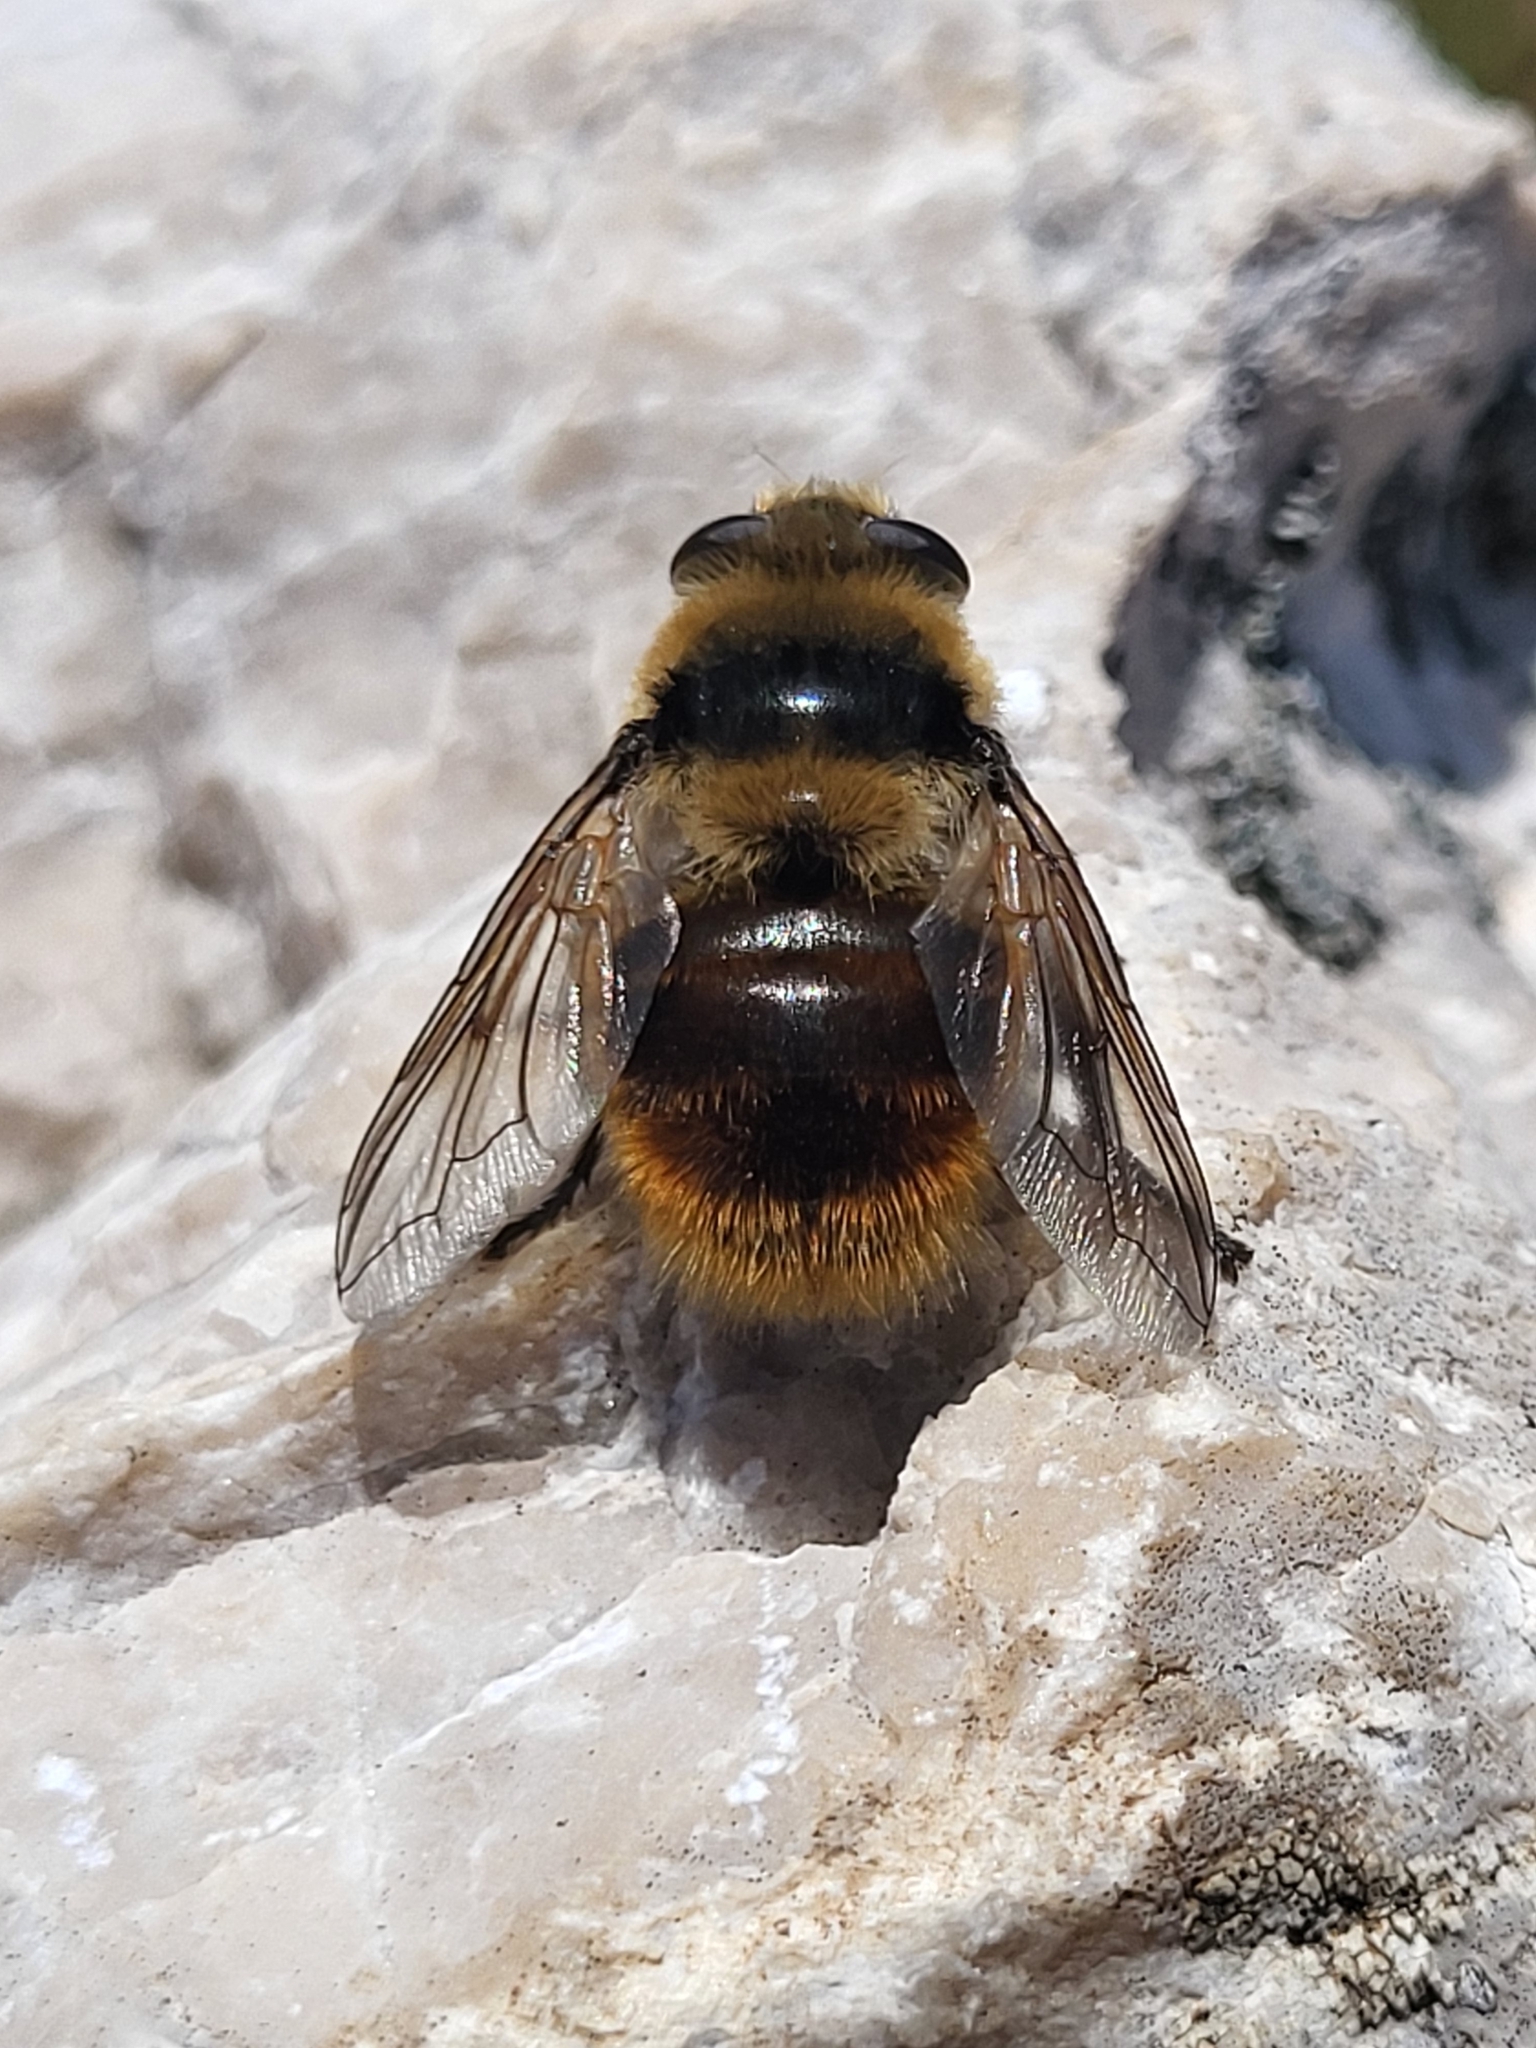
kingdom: Animalia
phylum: Arthropoda
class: Insecta
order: Diptera
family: Oestridae
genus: Cephenemyia
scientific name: Cephenemyia stimulator
